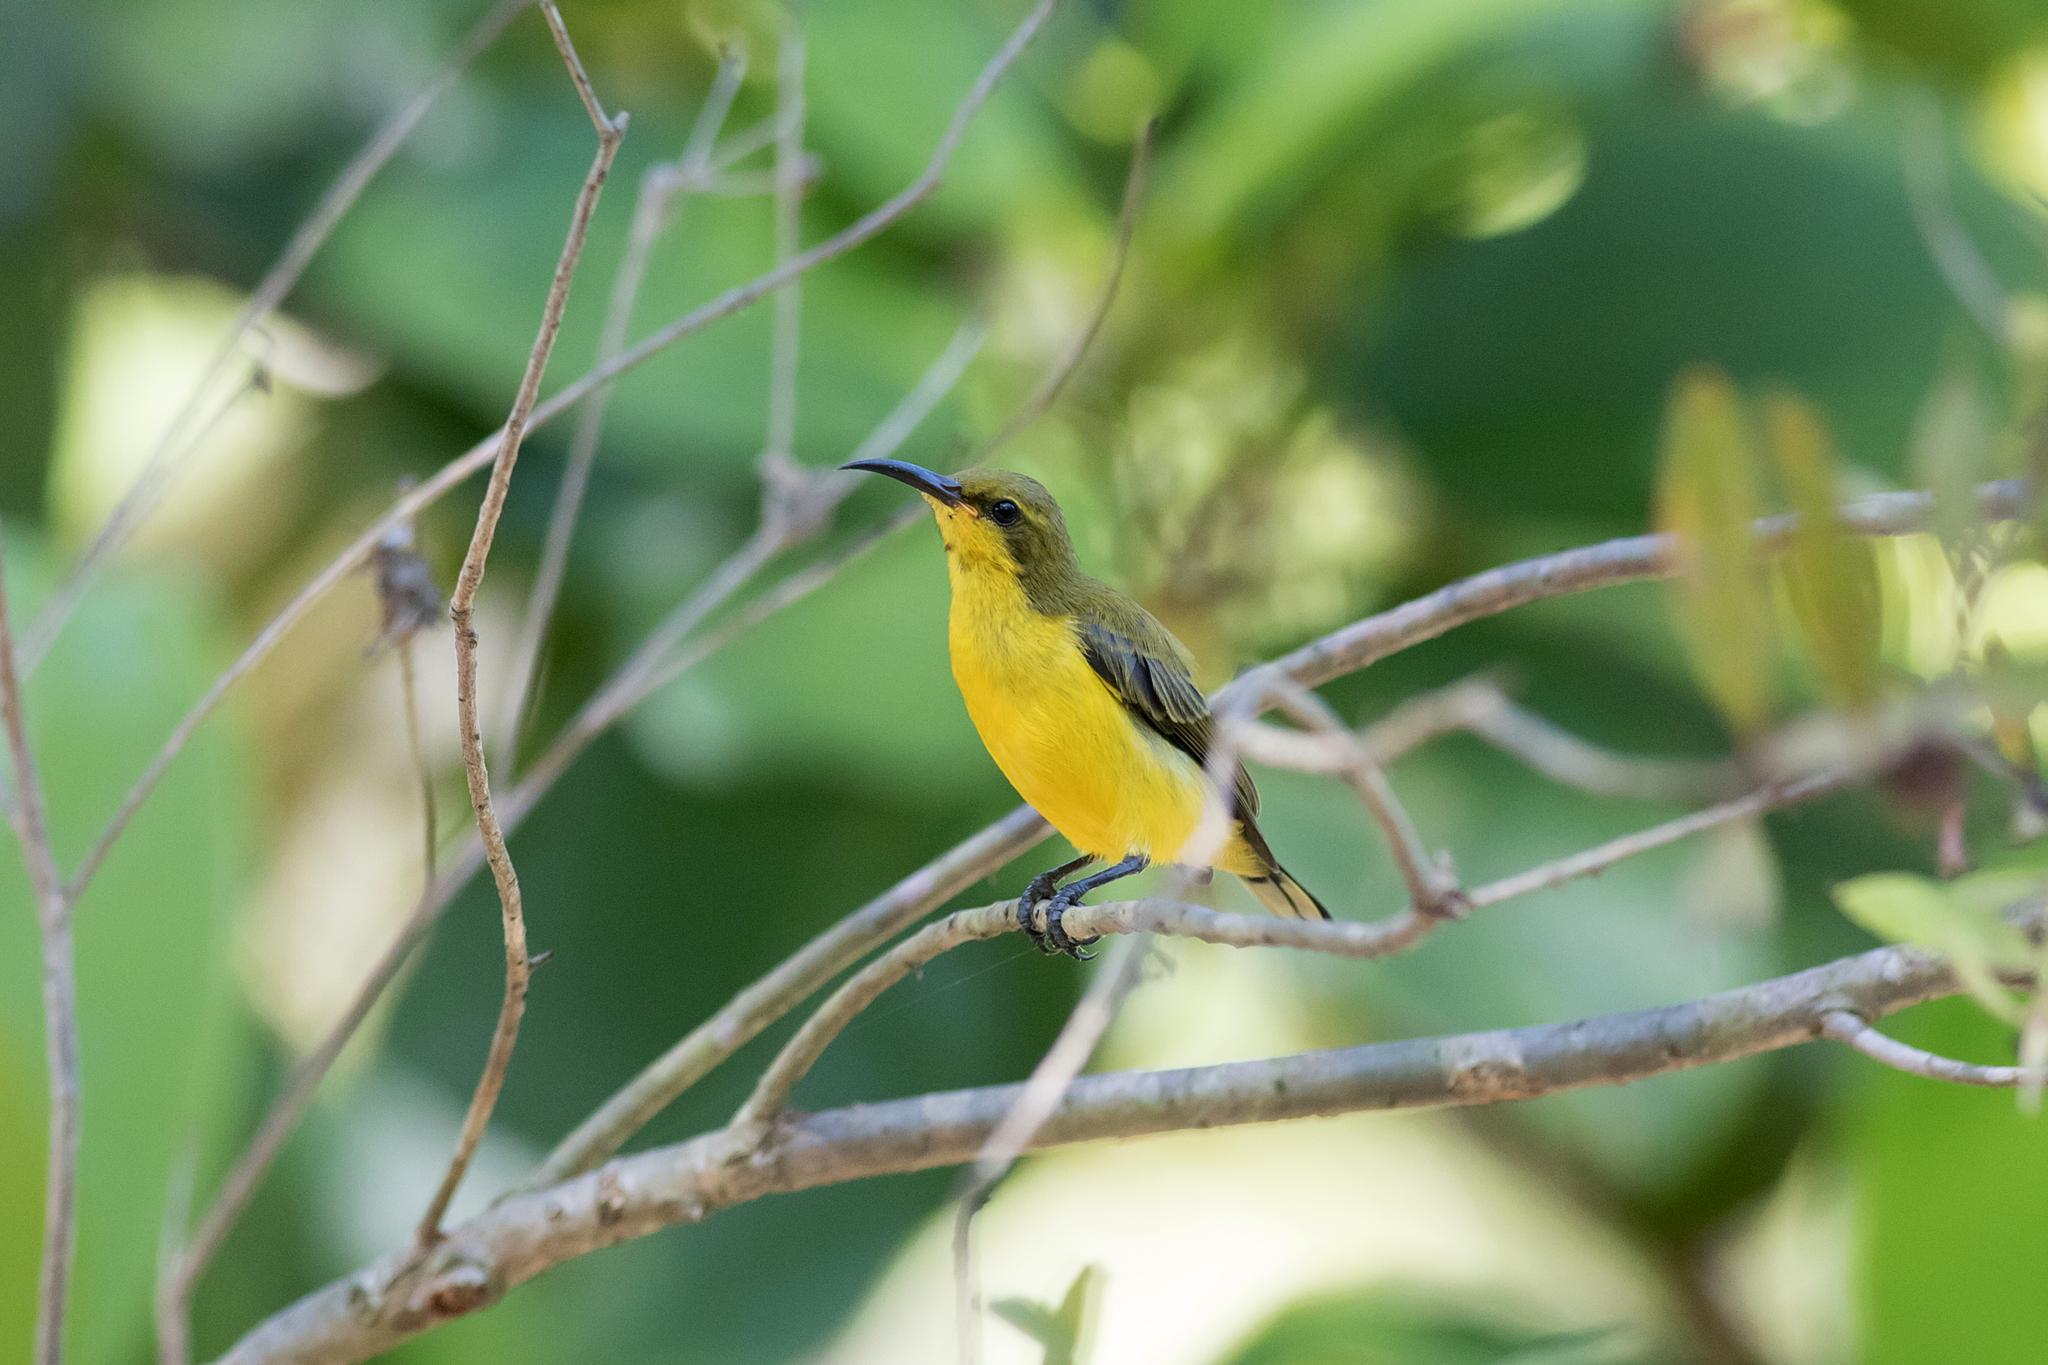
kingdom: Animalia
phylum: Chordata
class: Aves
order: Passeriformes
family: Nectariniidae
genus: Cinnyris
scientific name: Cinnyris
